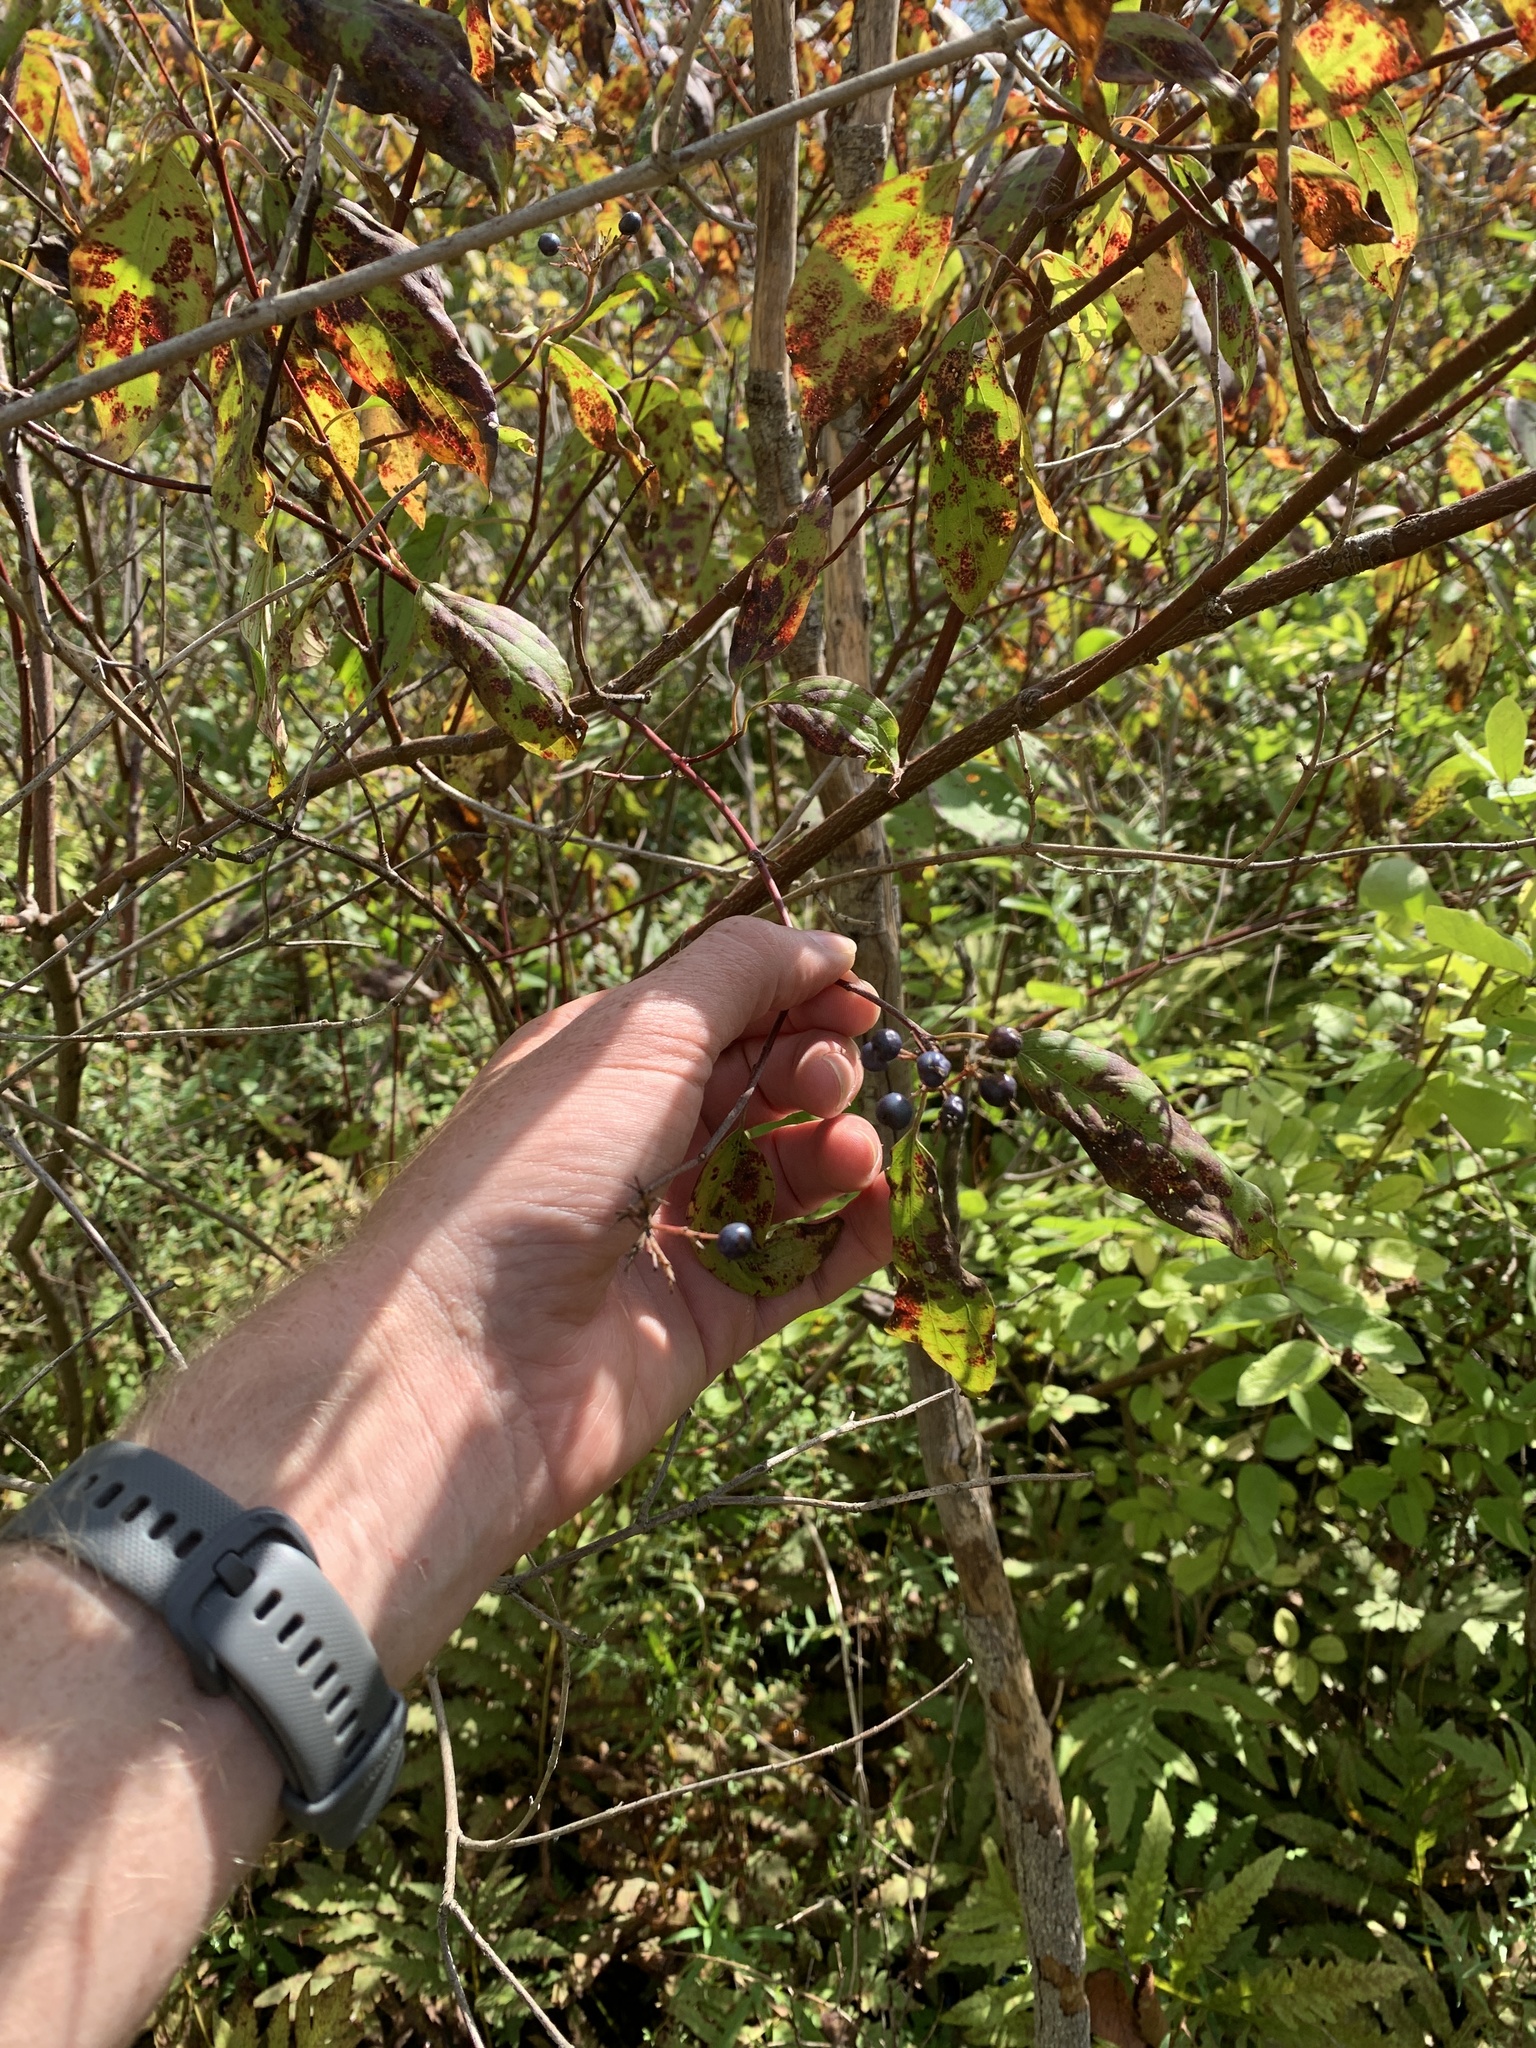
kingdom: Plantae
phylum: Tracheophyta
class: Magnoliopsida
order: Cornales
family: Cornaceae
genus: Cornus
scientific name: Cornus amomum
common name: Silky dogwood
